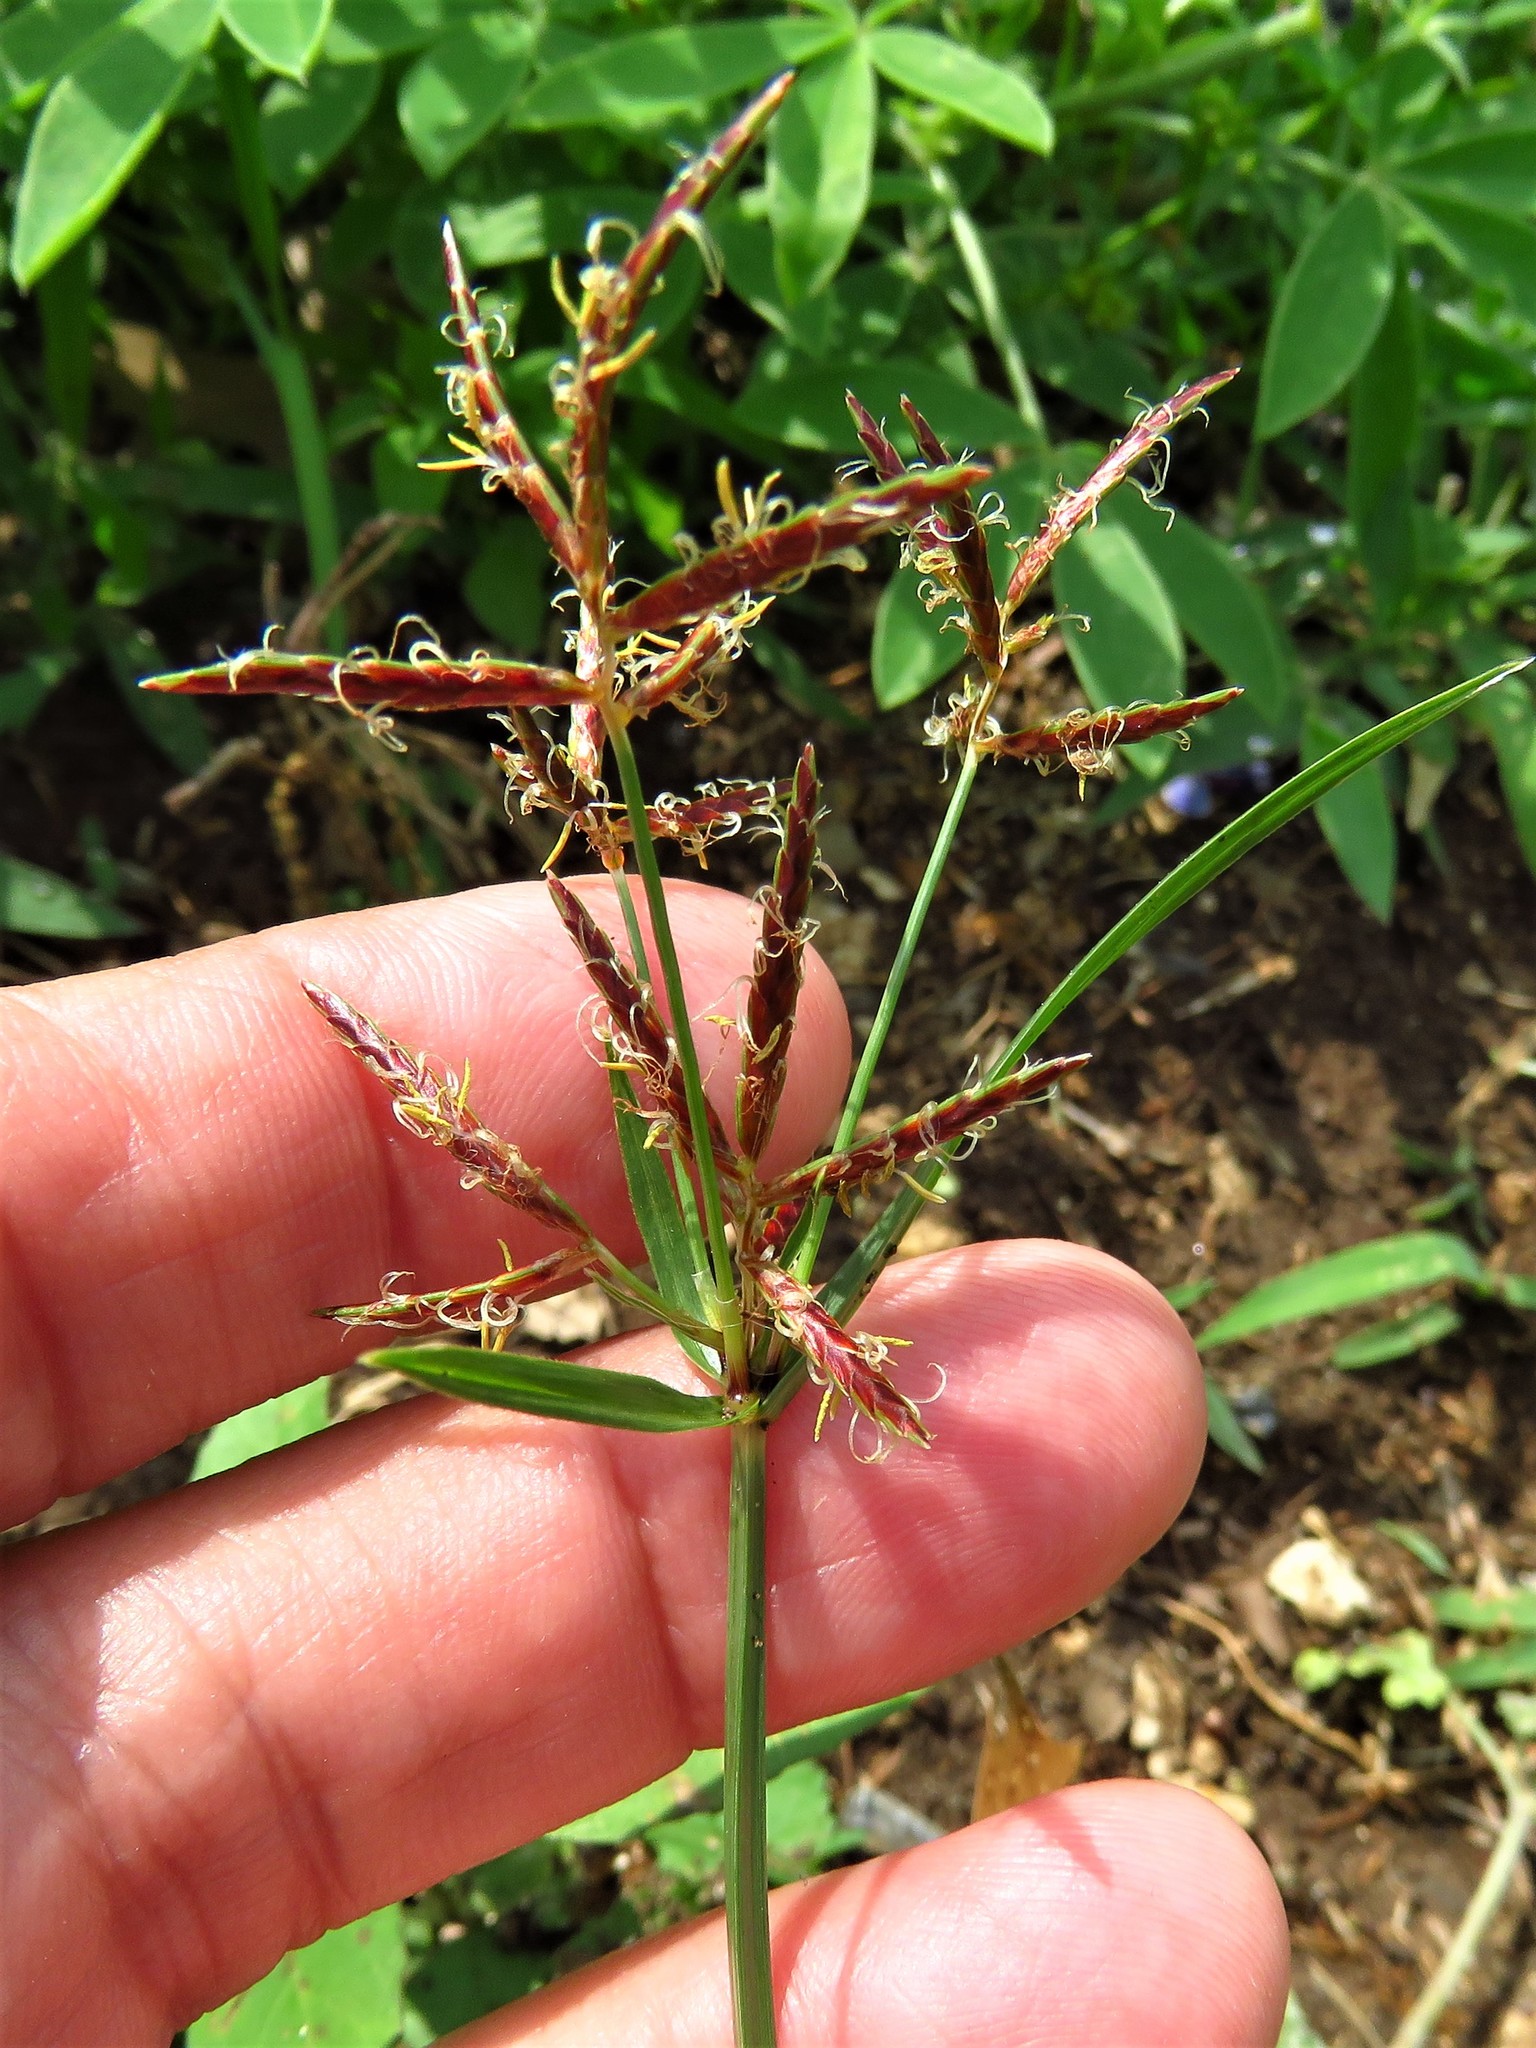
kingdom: Plantae
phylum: Tracheophyta
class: Liliopsida
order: Poales
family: Cyperaceae
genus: Cyperus
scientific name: Cyperus rotundus
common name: Nutgrass
